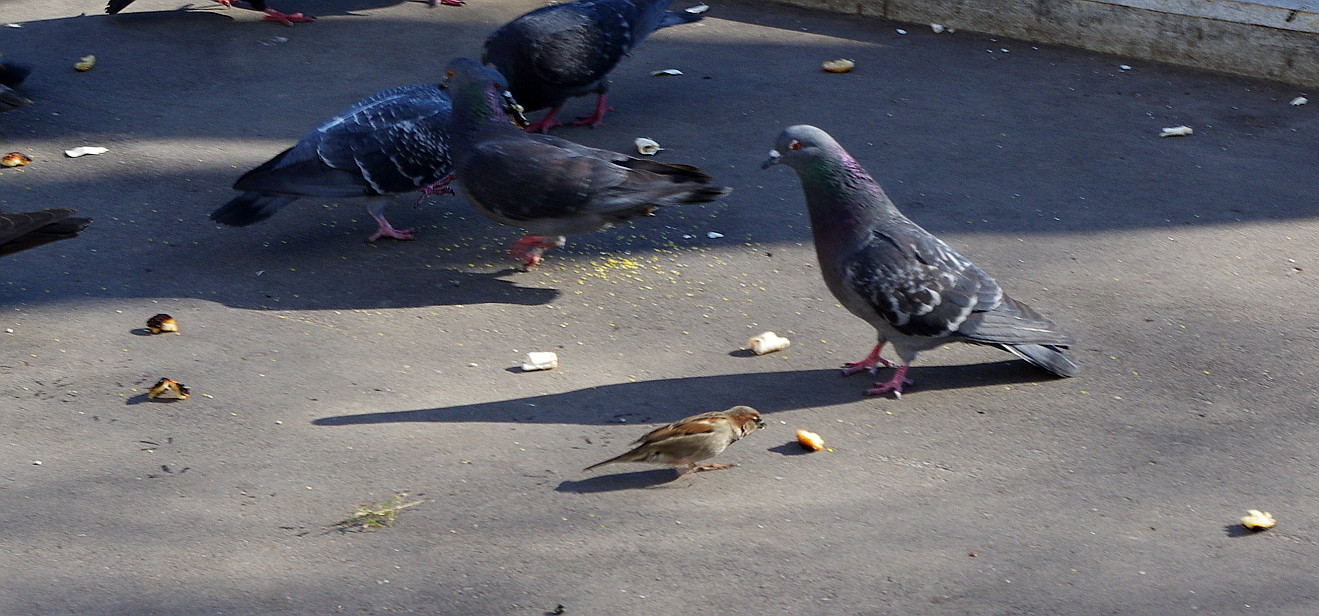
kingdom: Animalia
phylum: Chordata
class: Aves
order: Passeriformes
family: Passeridae
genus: Passer
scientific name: Passer domesticus
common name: House sparrow
